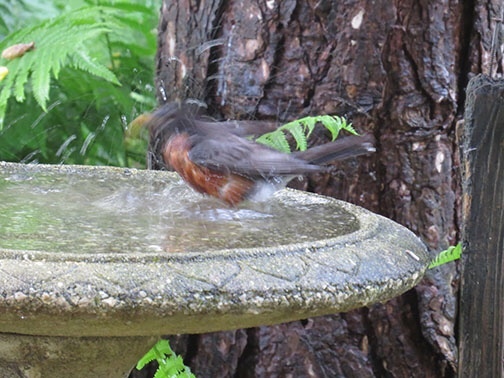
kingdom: Animalia
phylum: Chordata
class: Aves
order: Passeriformes
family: Turdidae
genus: Turdus
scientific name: Turdus migratorius
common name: American robin
